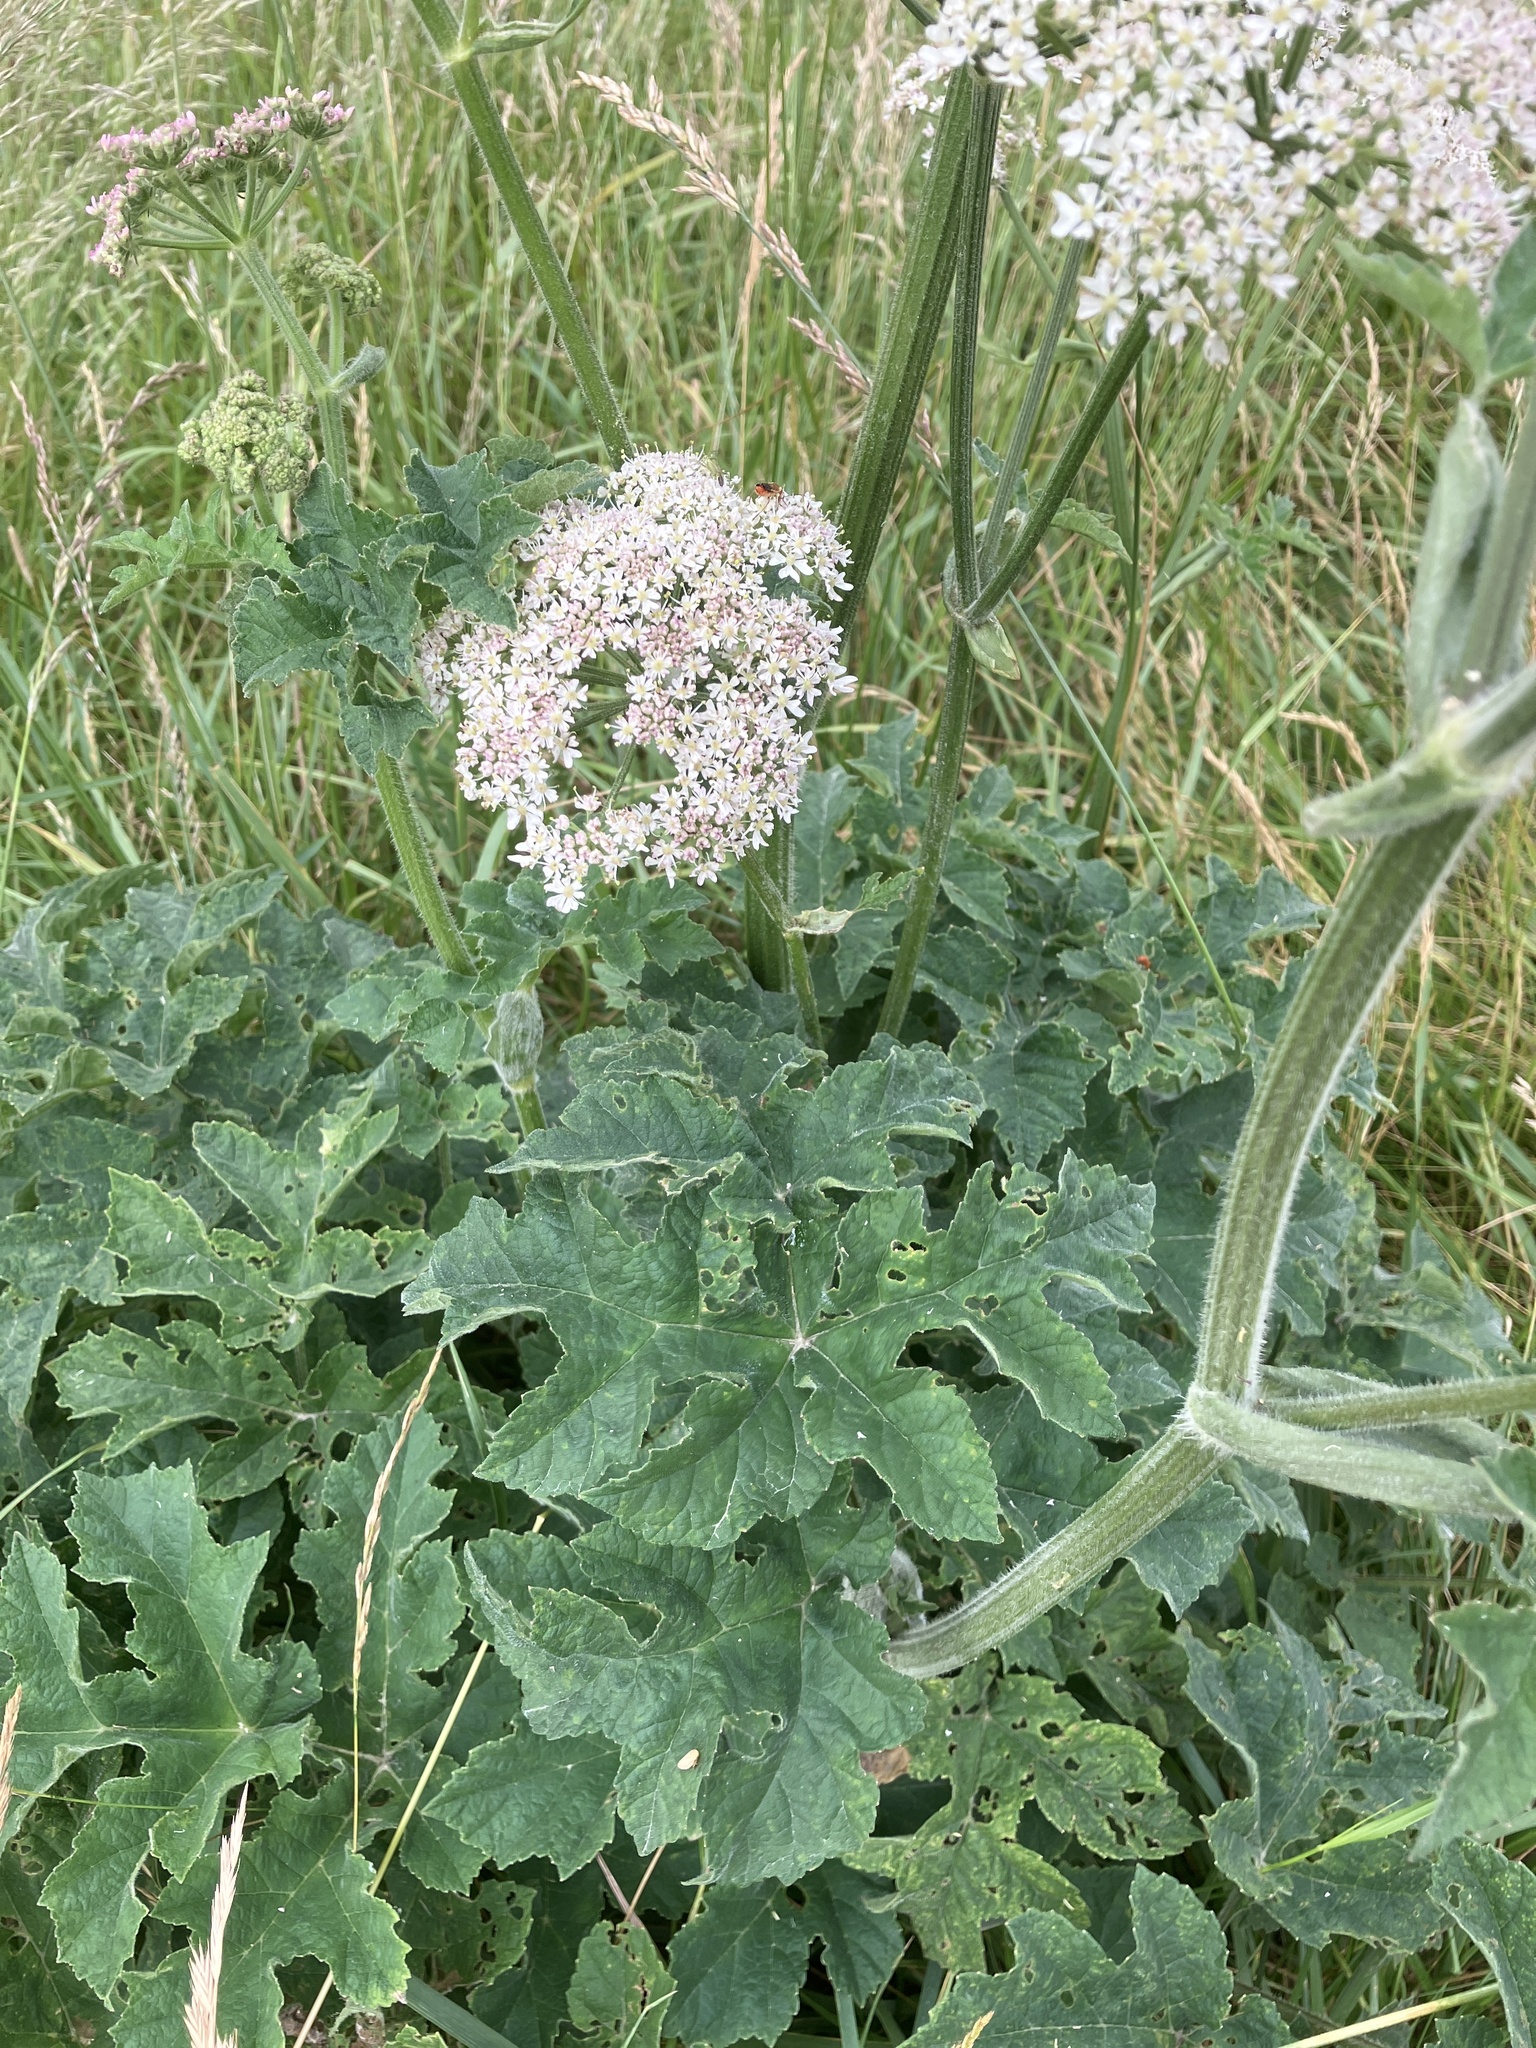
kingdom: Plantae
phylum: Tracheophyta
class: Magnoliopsida
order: Apiales
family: Apiaceae
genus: Heracleum
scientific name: Heracleum sphondylium
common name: Hogweed
